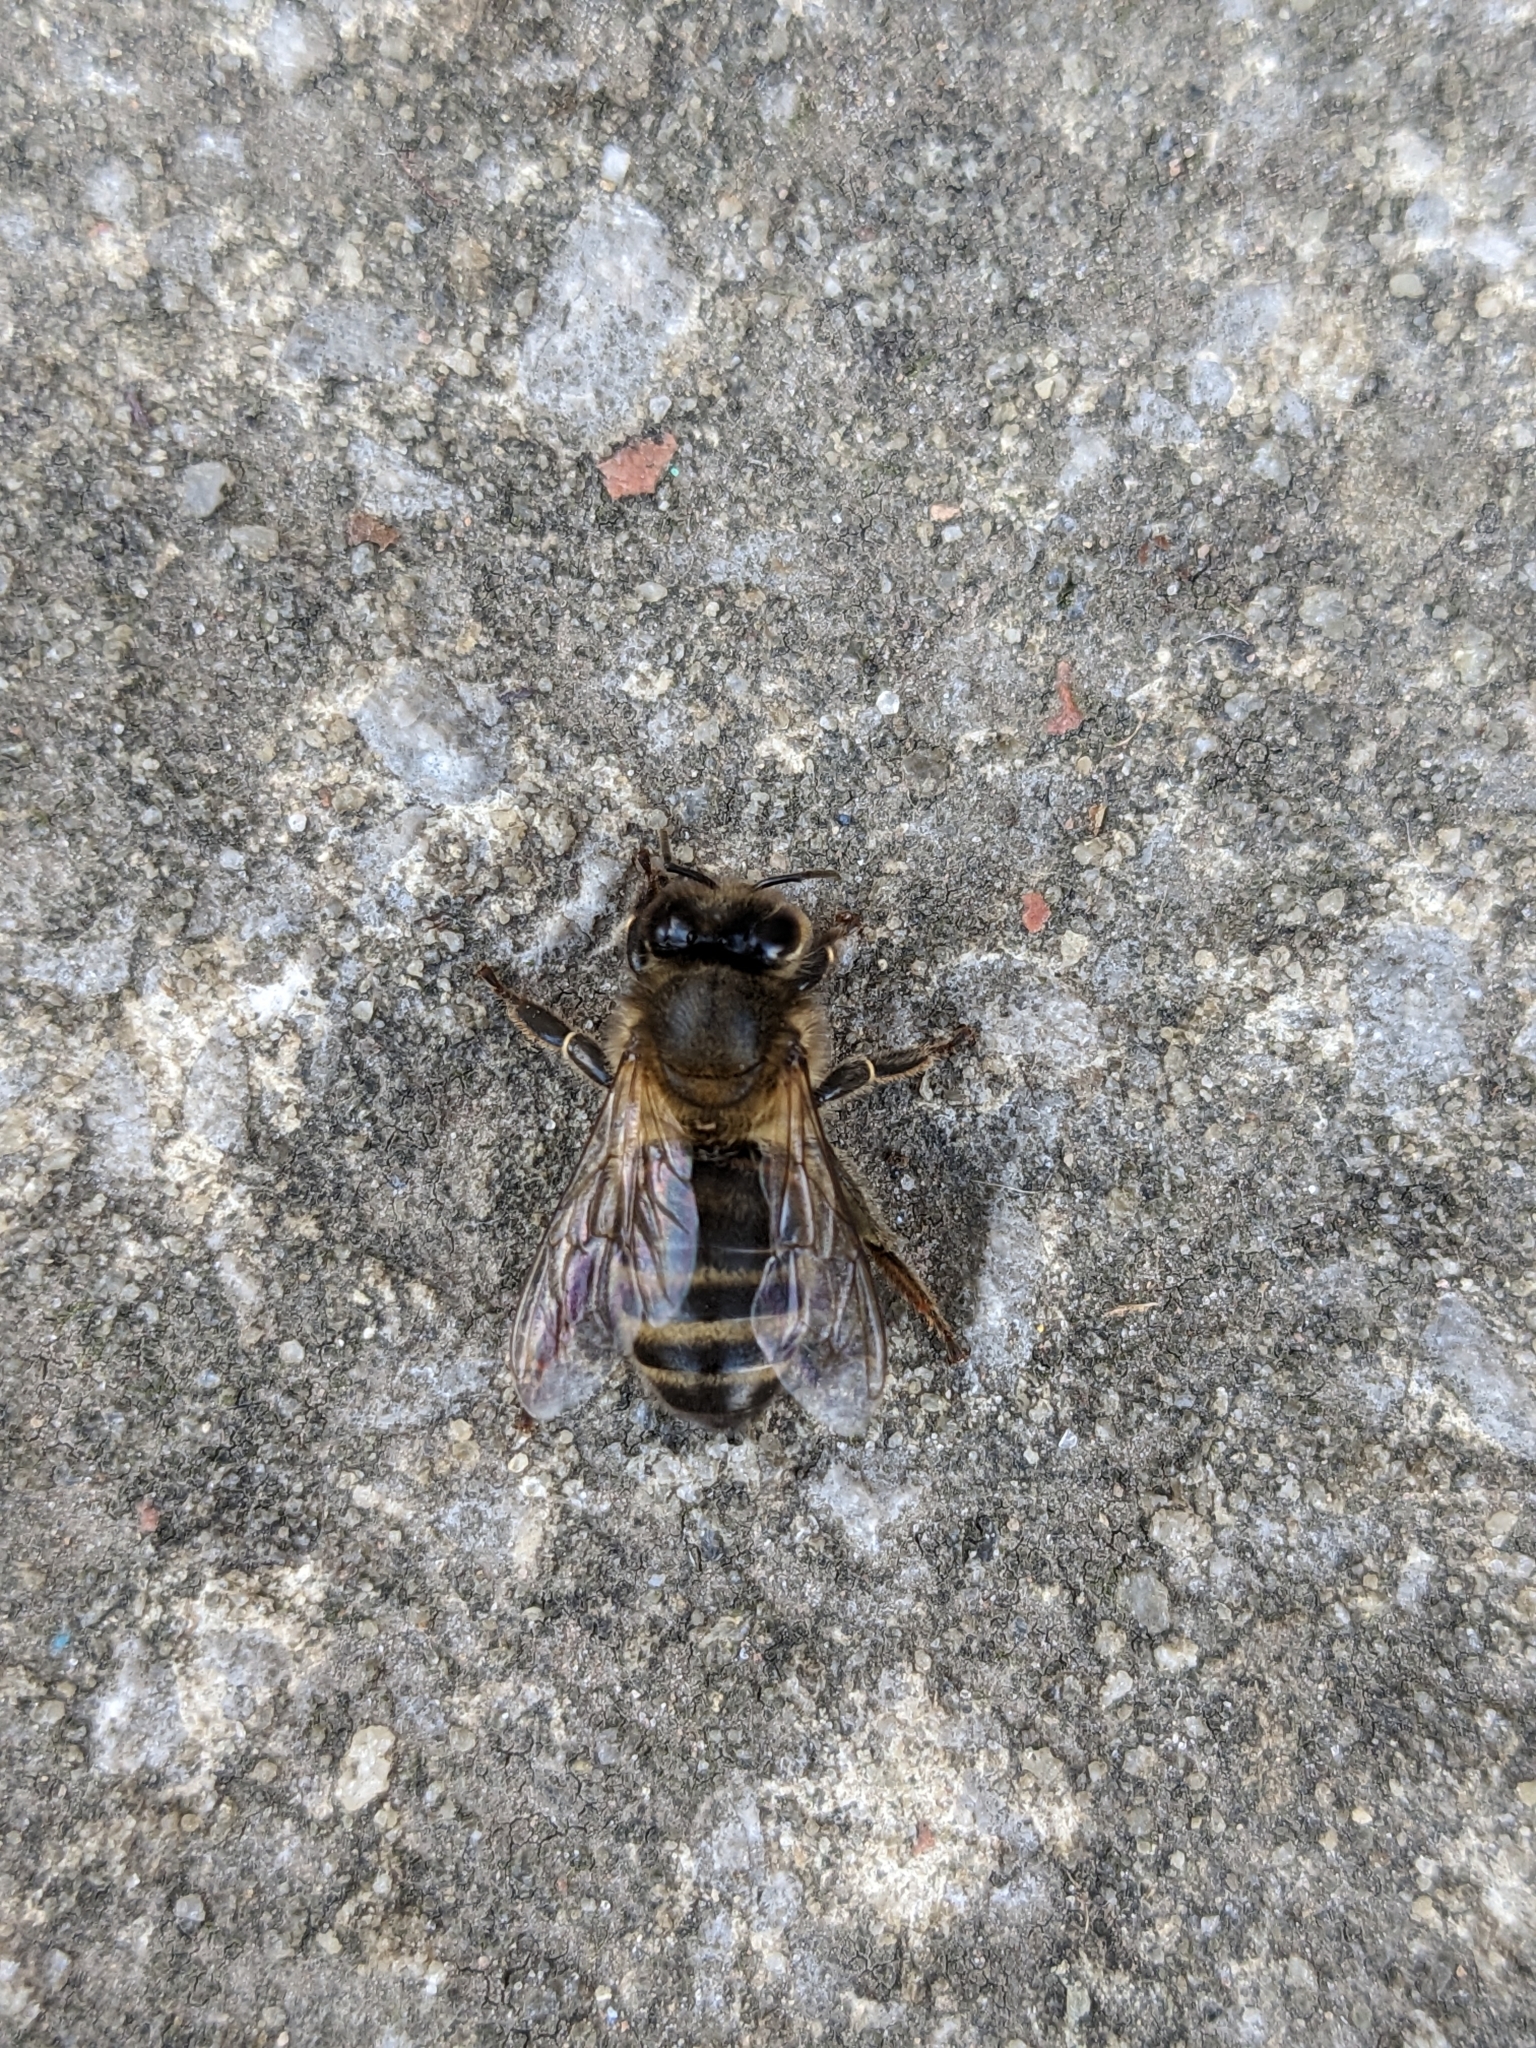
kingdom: Animalia
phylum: Arthropoda
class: Insecta
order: Hymenoptera
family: Apidae
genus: Apis
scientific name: Apis mellifera
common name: Honey bee
